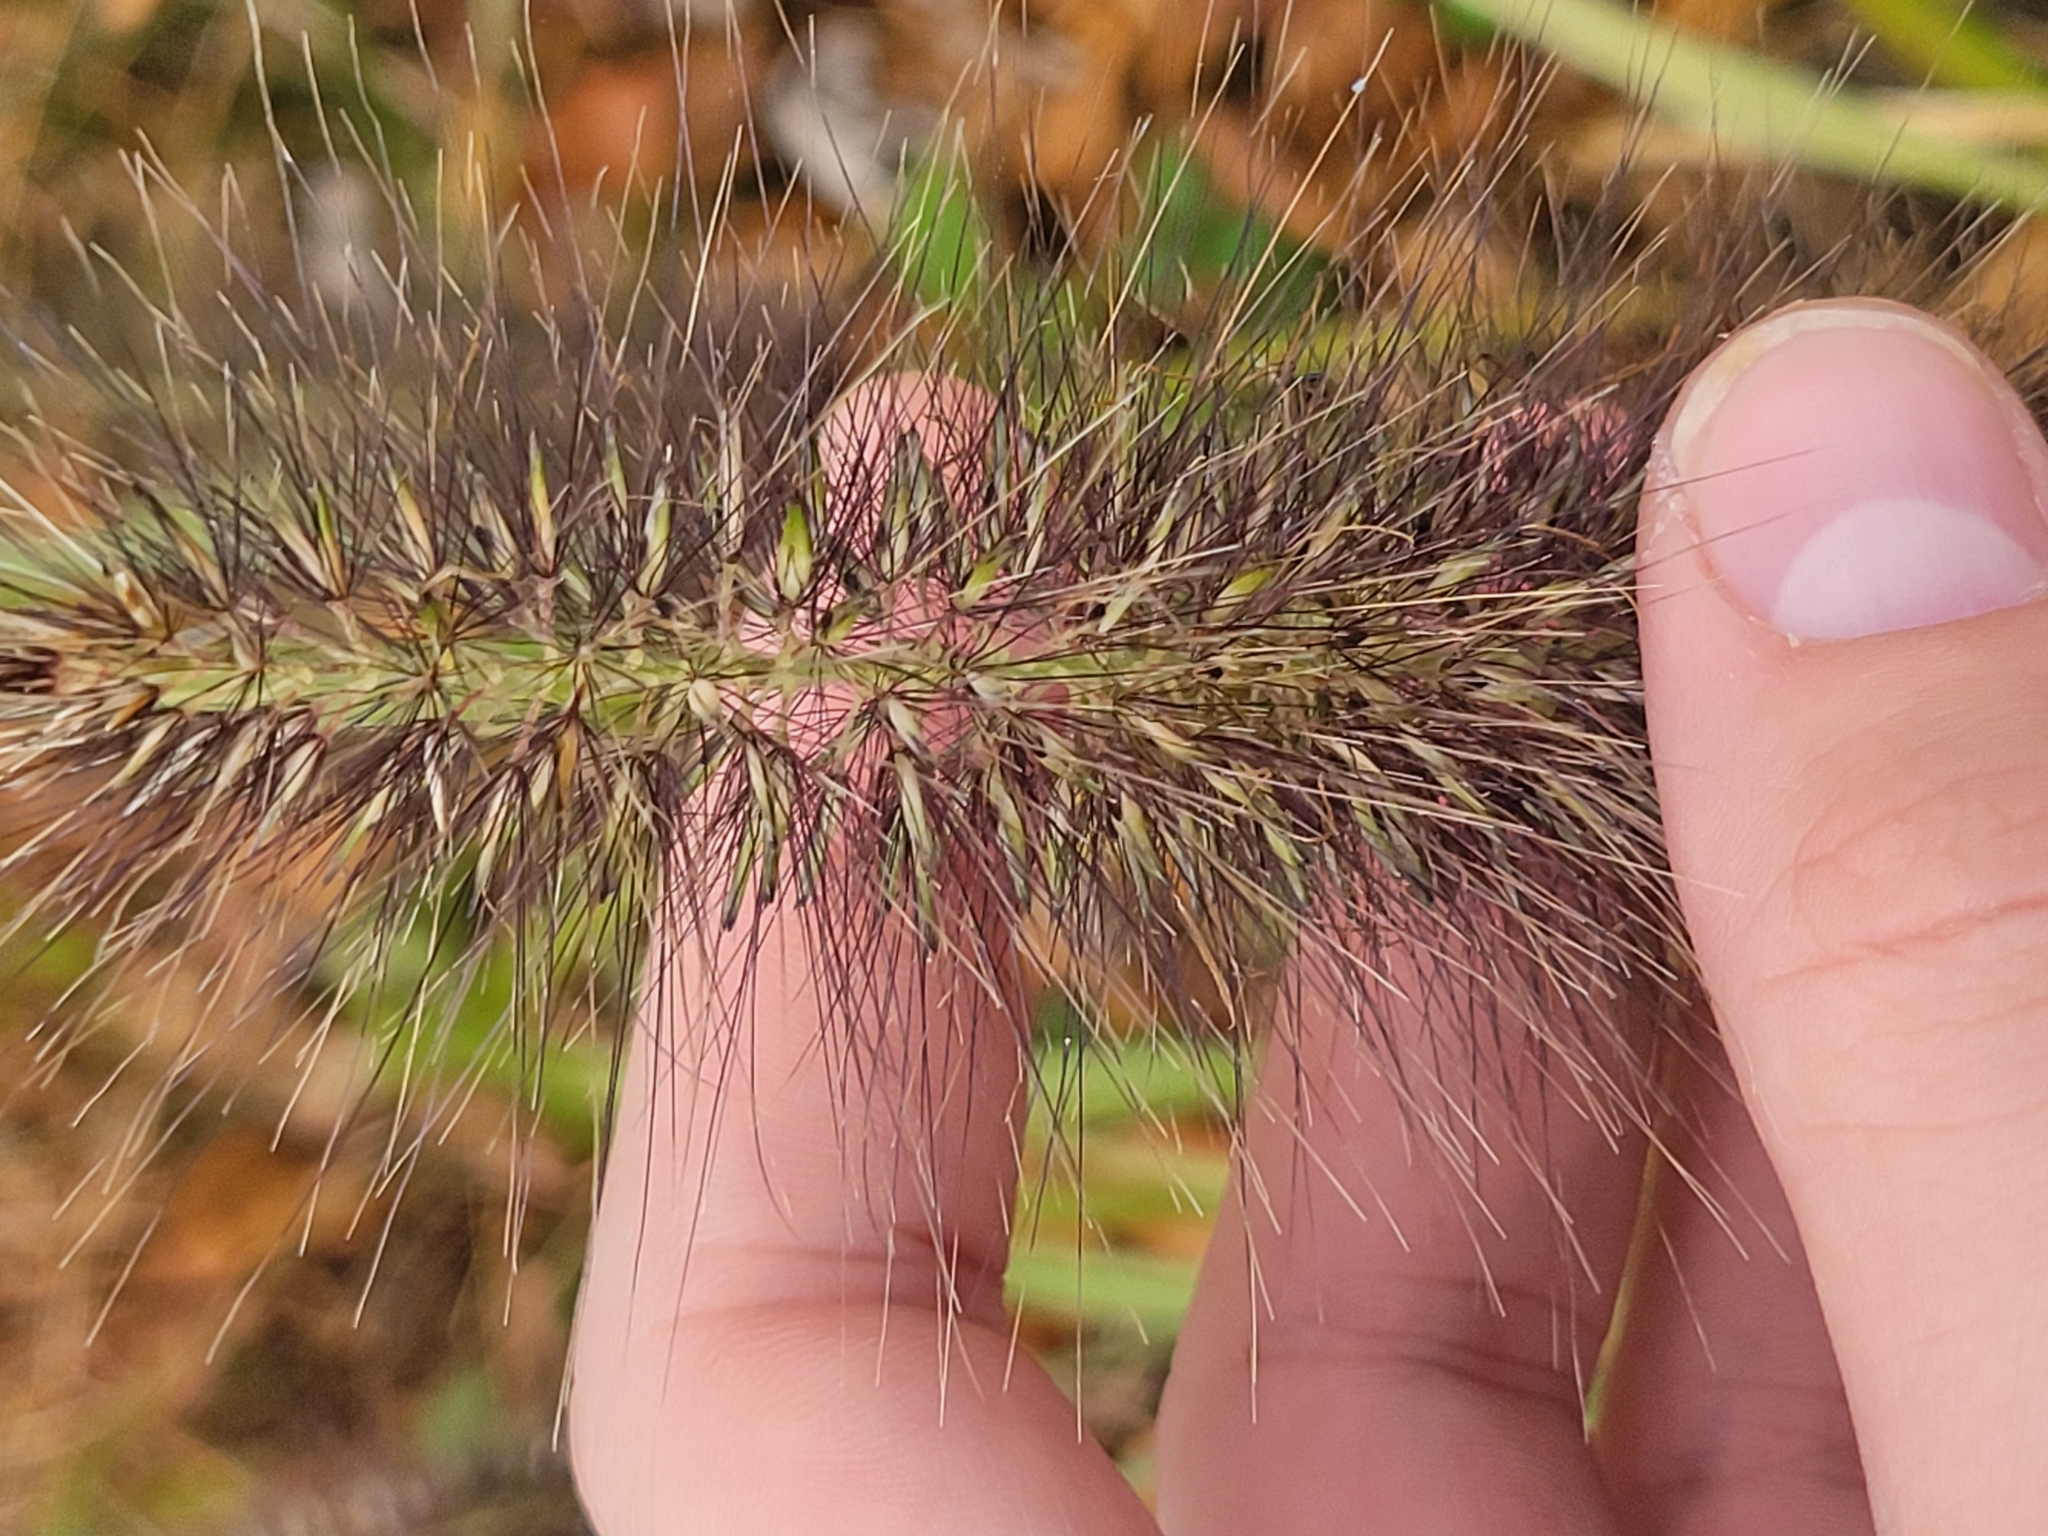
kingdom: Plantae
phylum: Tracheophyta
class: Liliopsida
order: Poales
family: Poaceae
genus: Cenchrus
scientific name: Cenchrus alopecuroides
